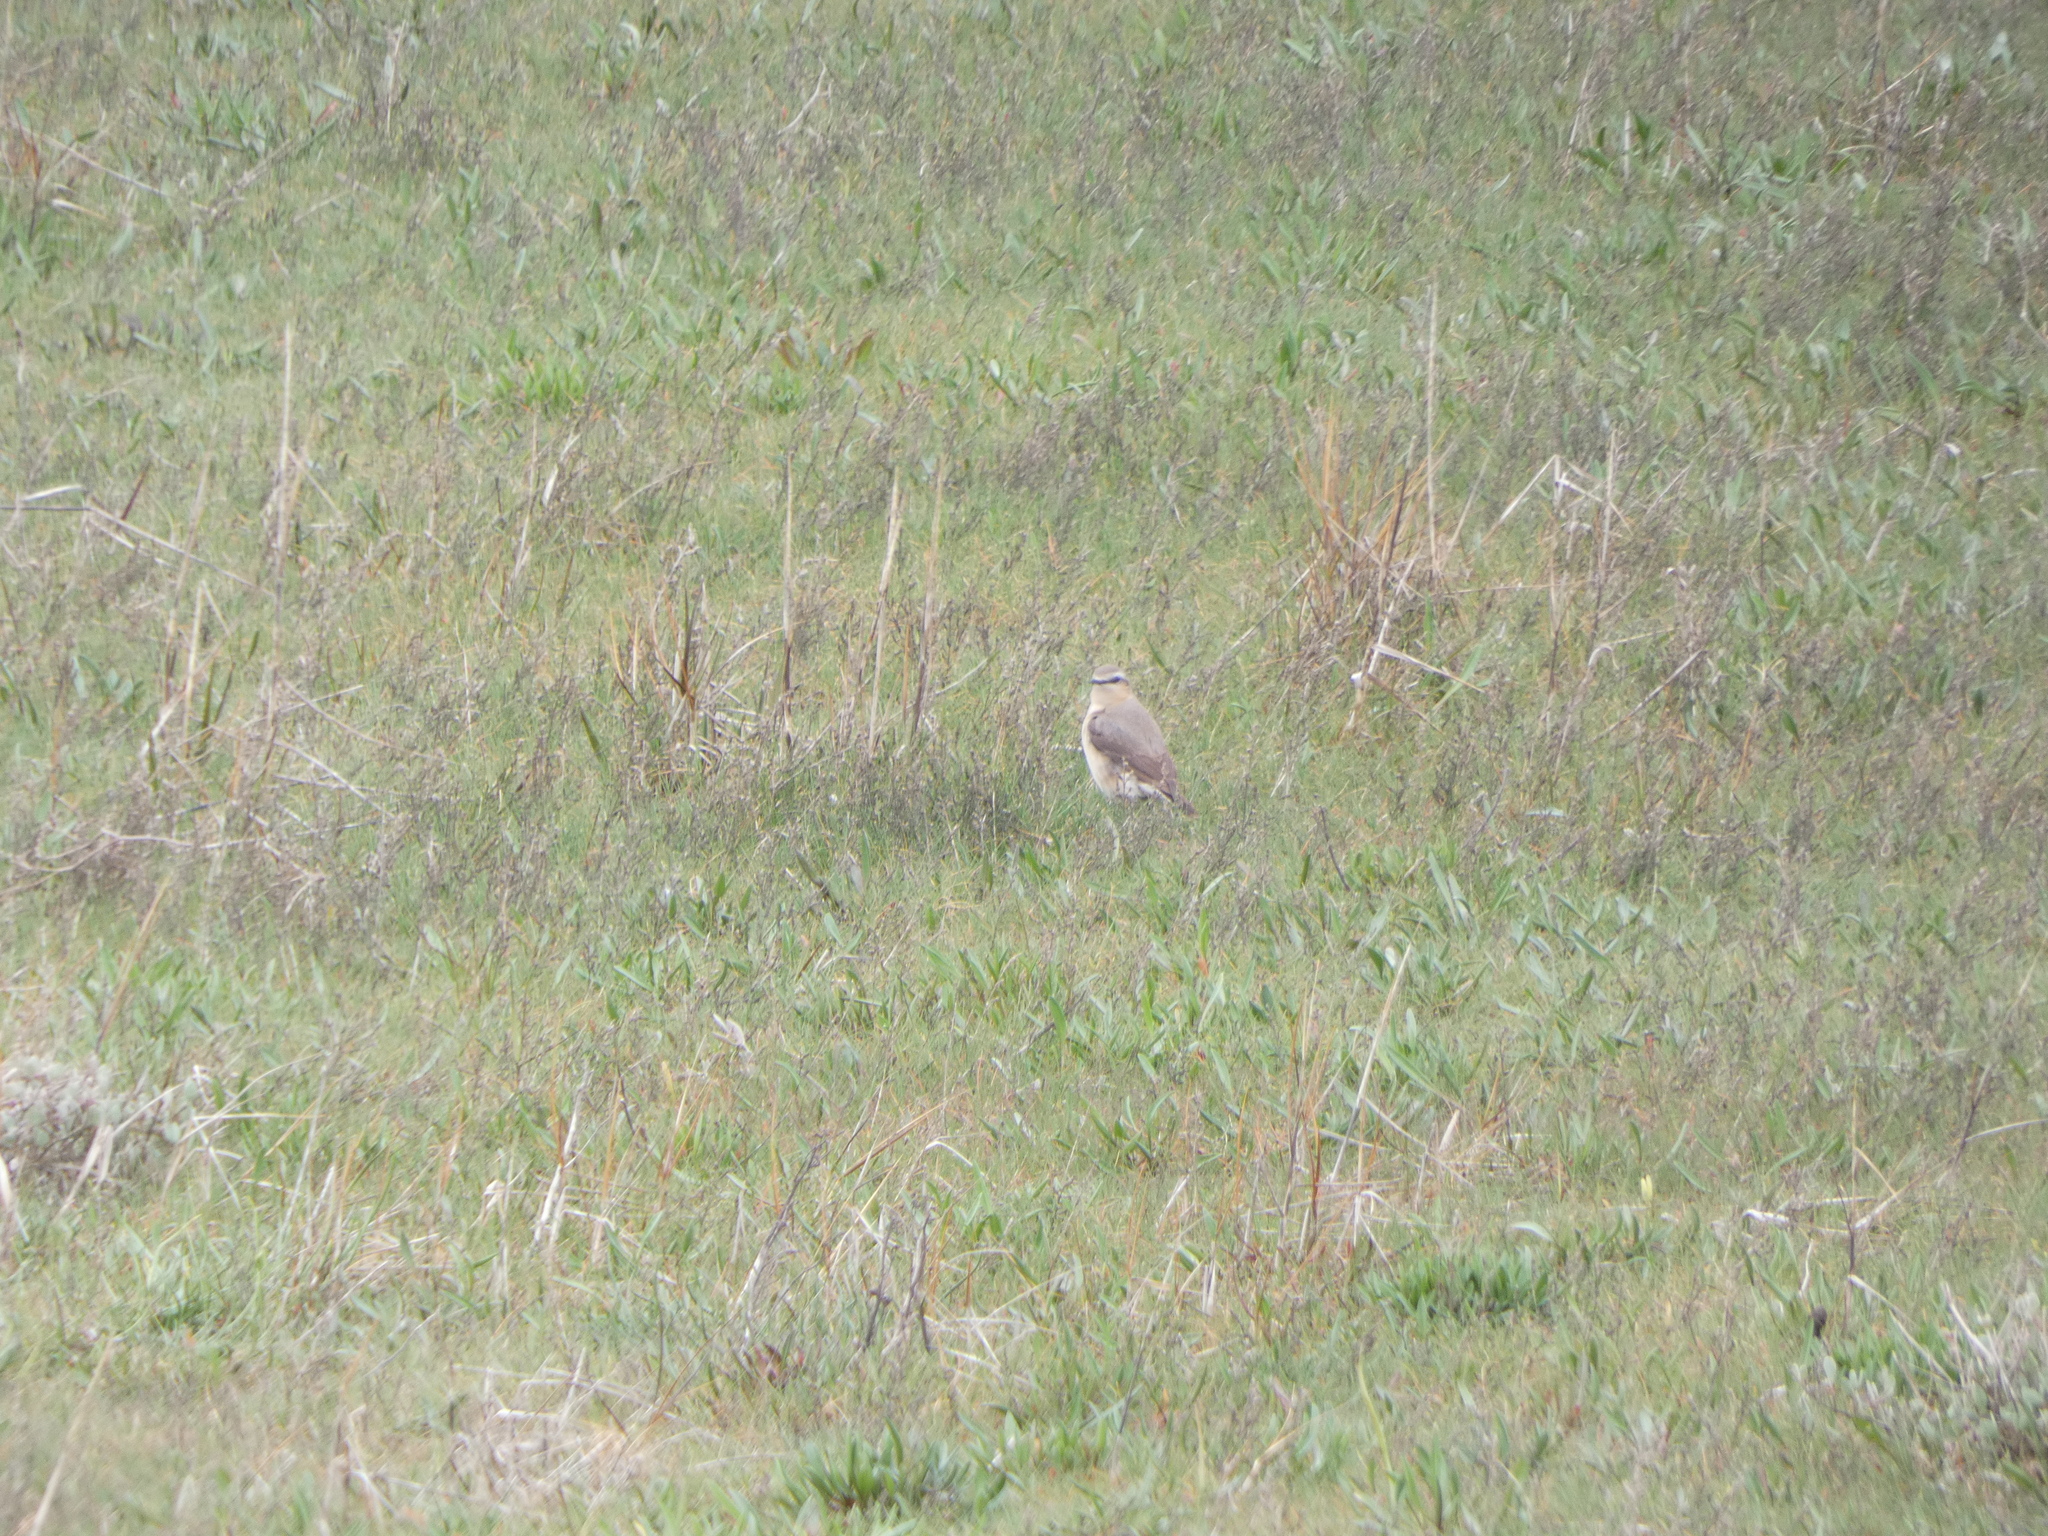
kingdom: Animalia
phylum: Chordata
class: Aves
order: Passeriformes
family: Muscicapidae
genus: Oenanthe
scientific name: Oenanthe oenanthe
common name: Northern wheatear
